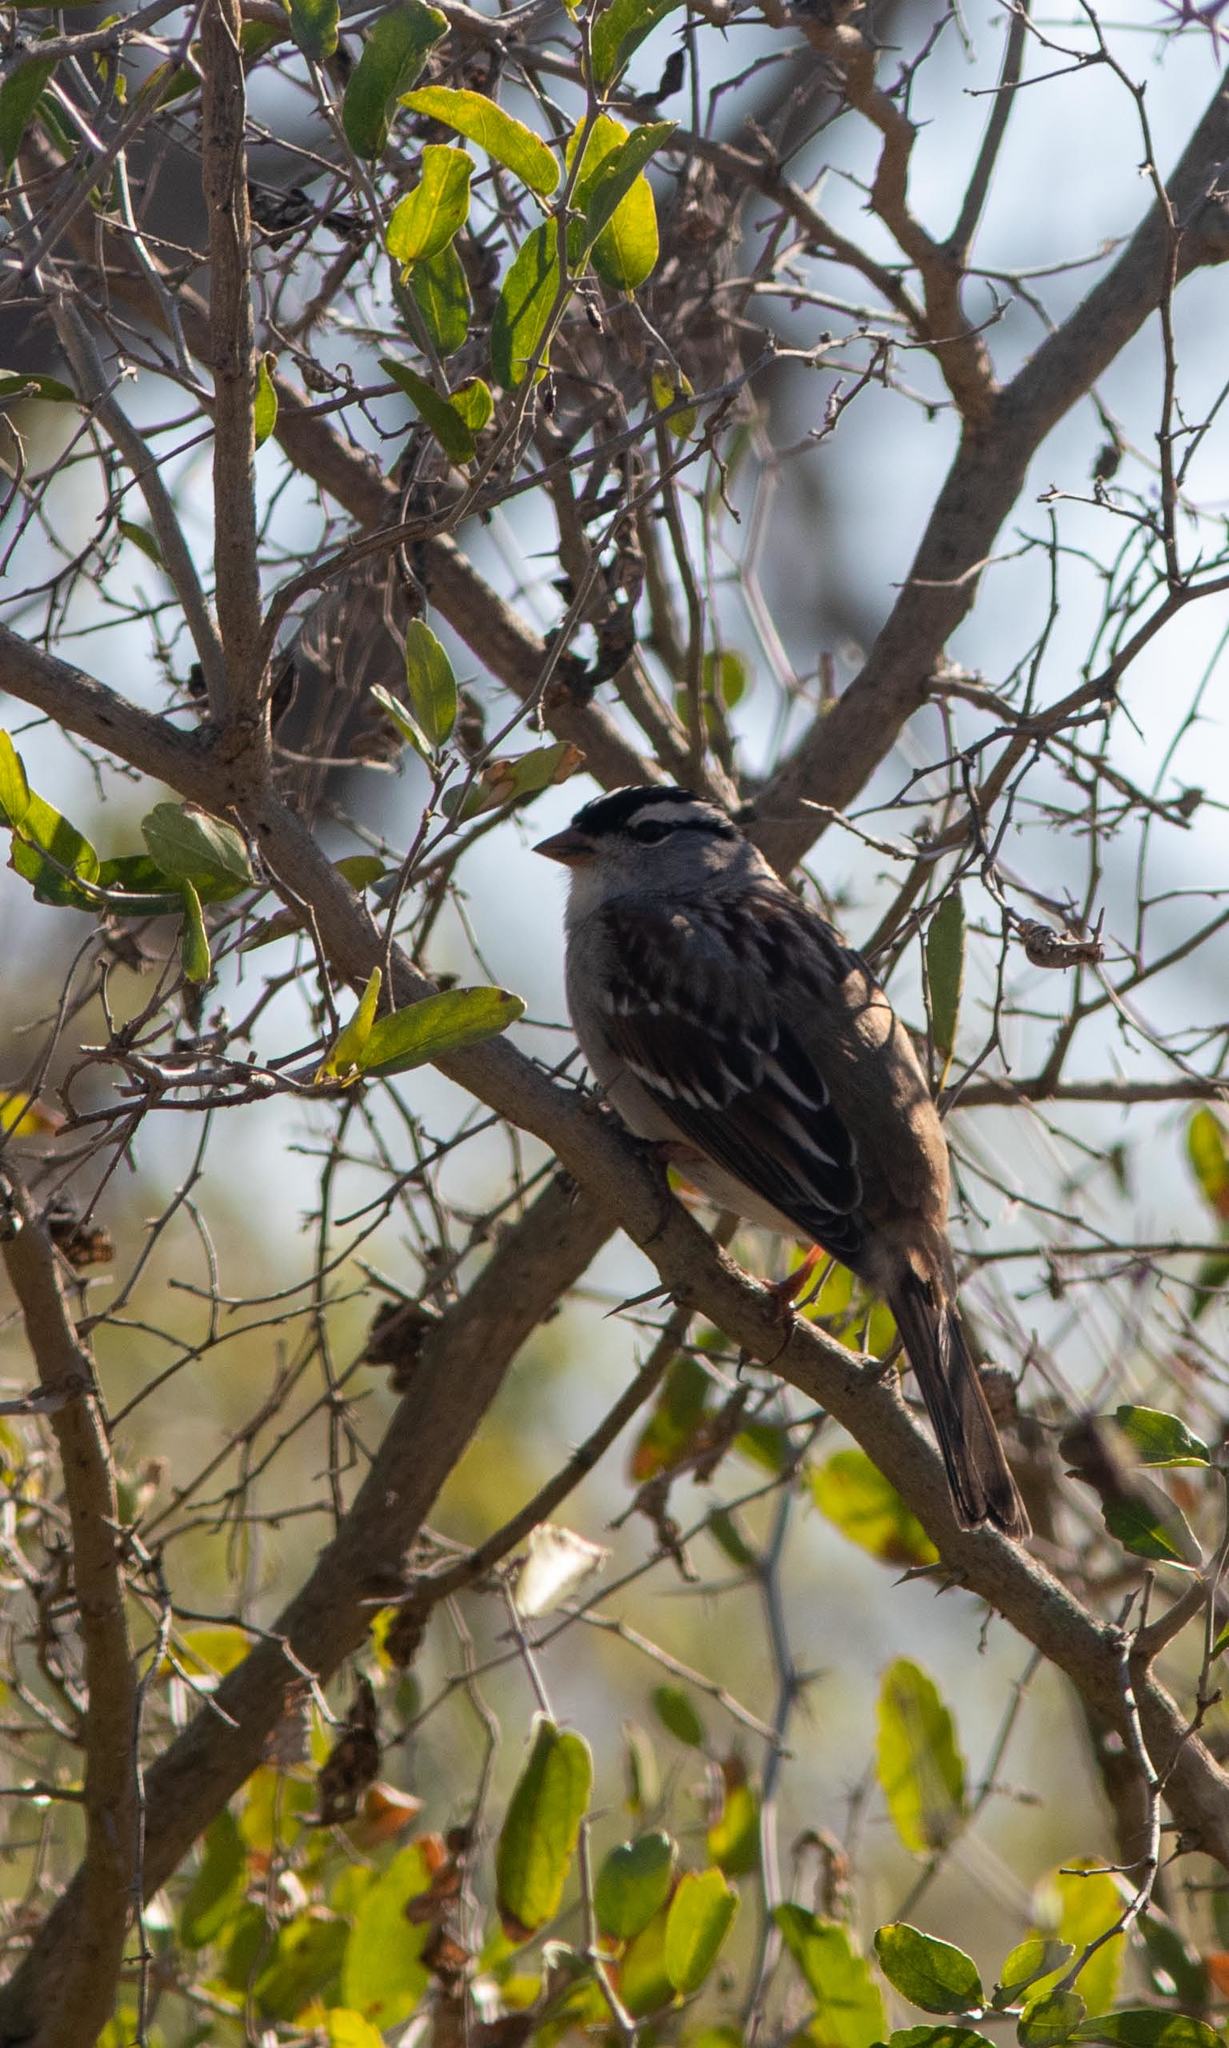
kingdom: Animalia
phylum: Chordata
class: Aves
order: Passeriformes
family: Passerellidae
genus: Zonotrichia
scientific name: Zonotrichia leucophrys
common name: White-crowned sparrow
